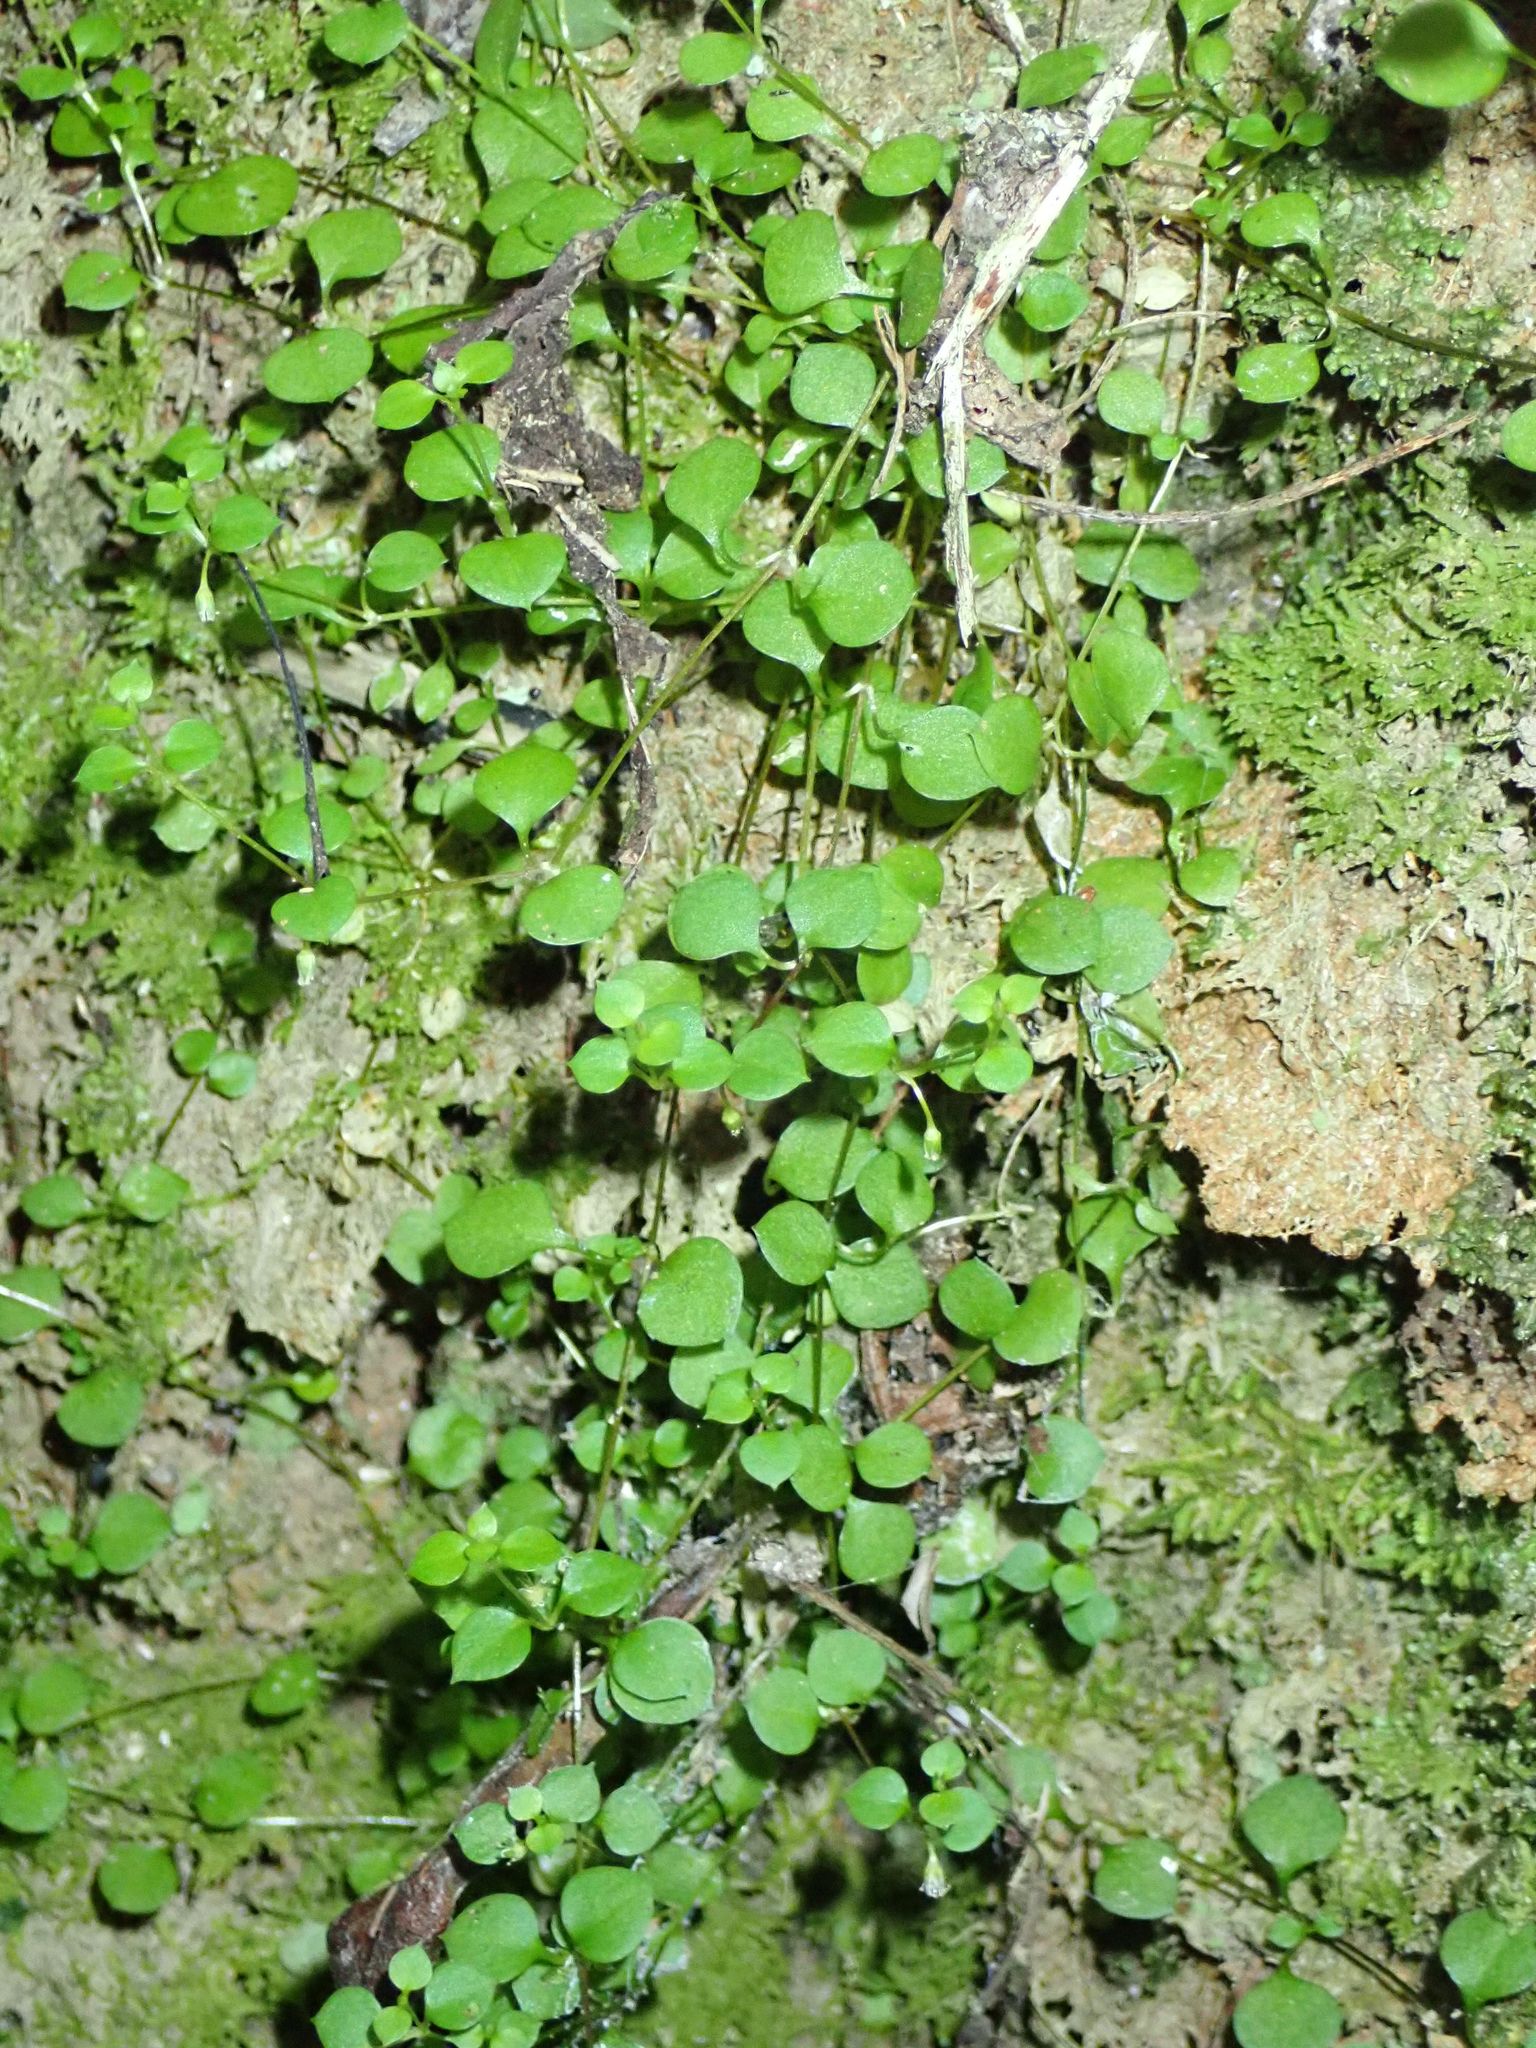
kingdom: Plantae
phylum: Tracheophyta
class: Magnoliopsida
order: Caryophyllales
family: Caryophyllaceae
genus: Stellaria
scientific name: Stellaria parviflora
